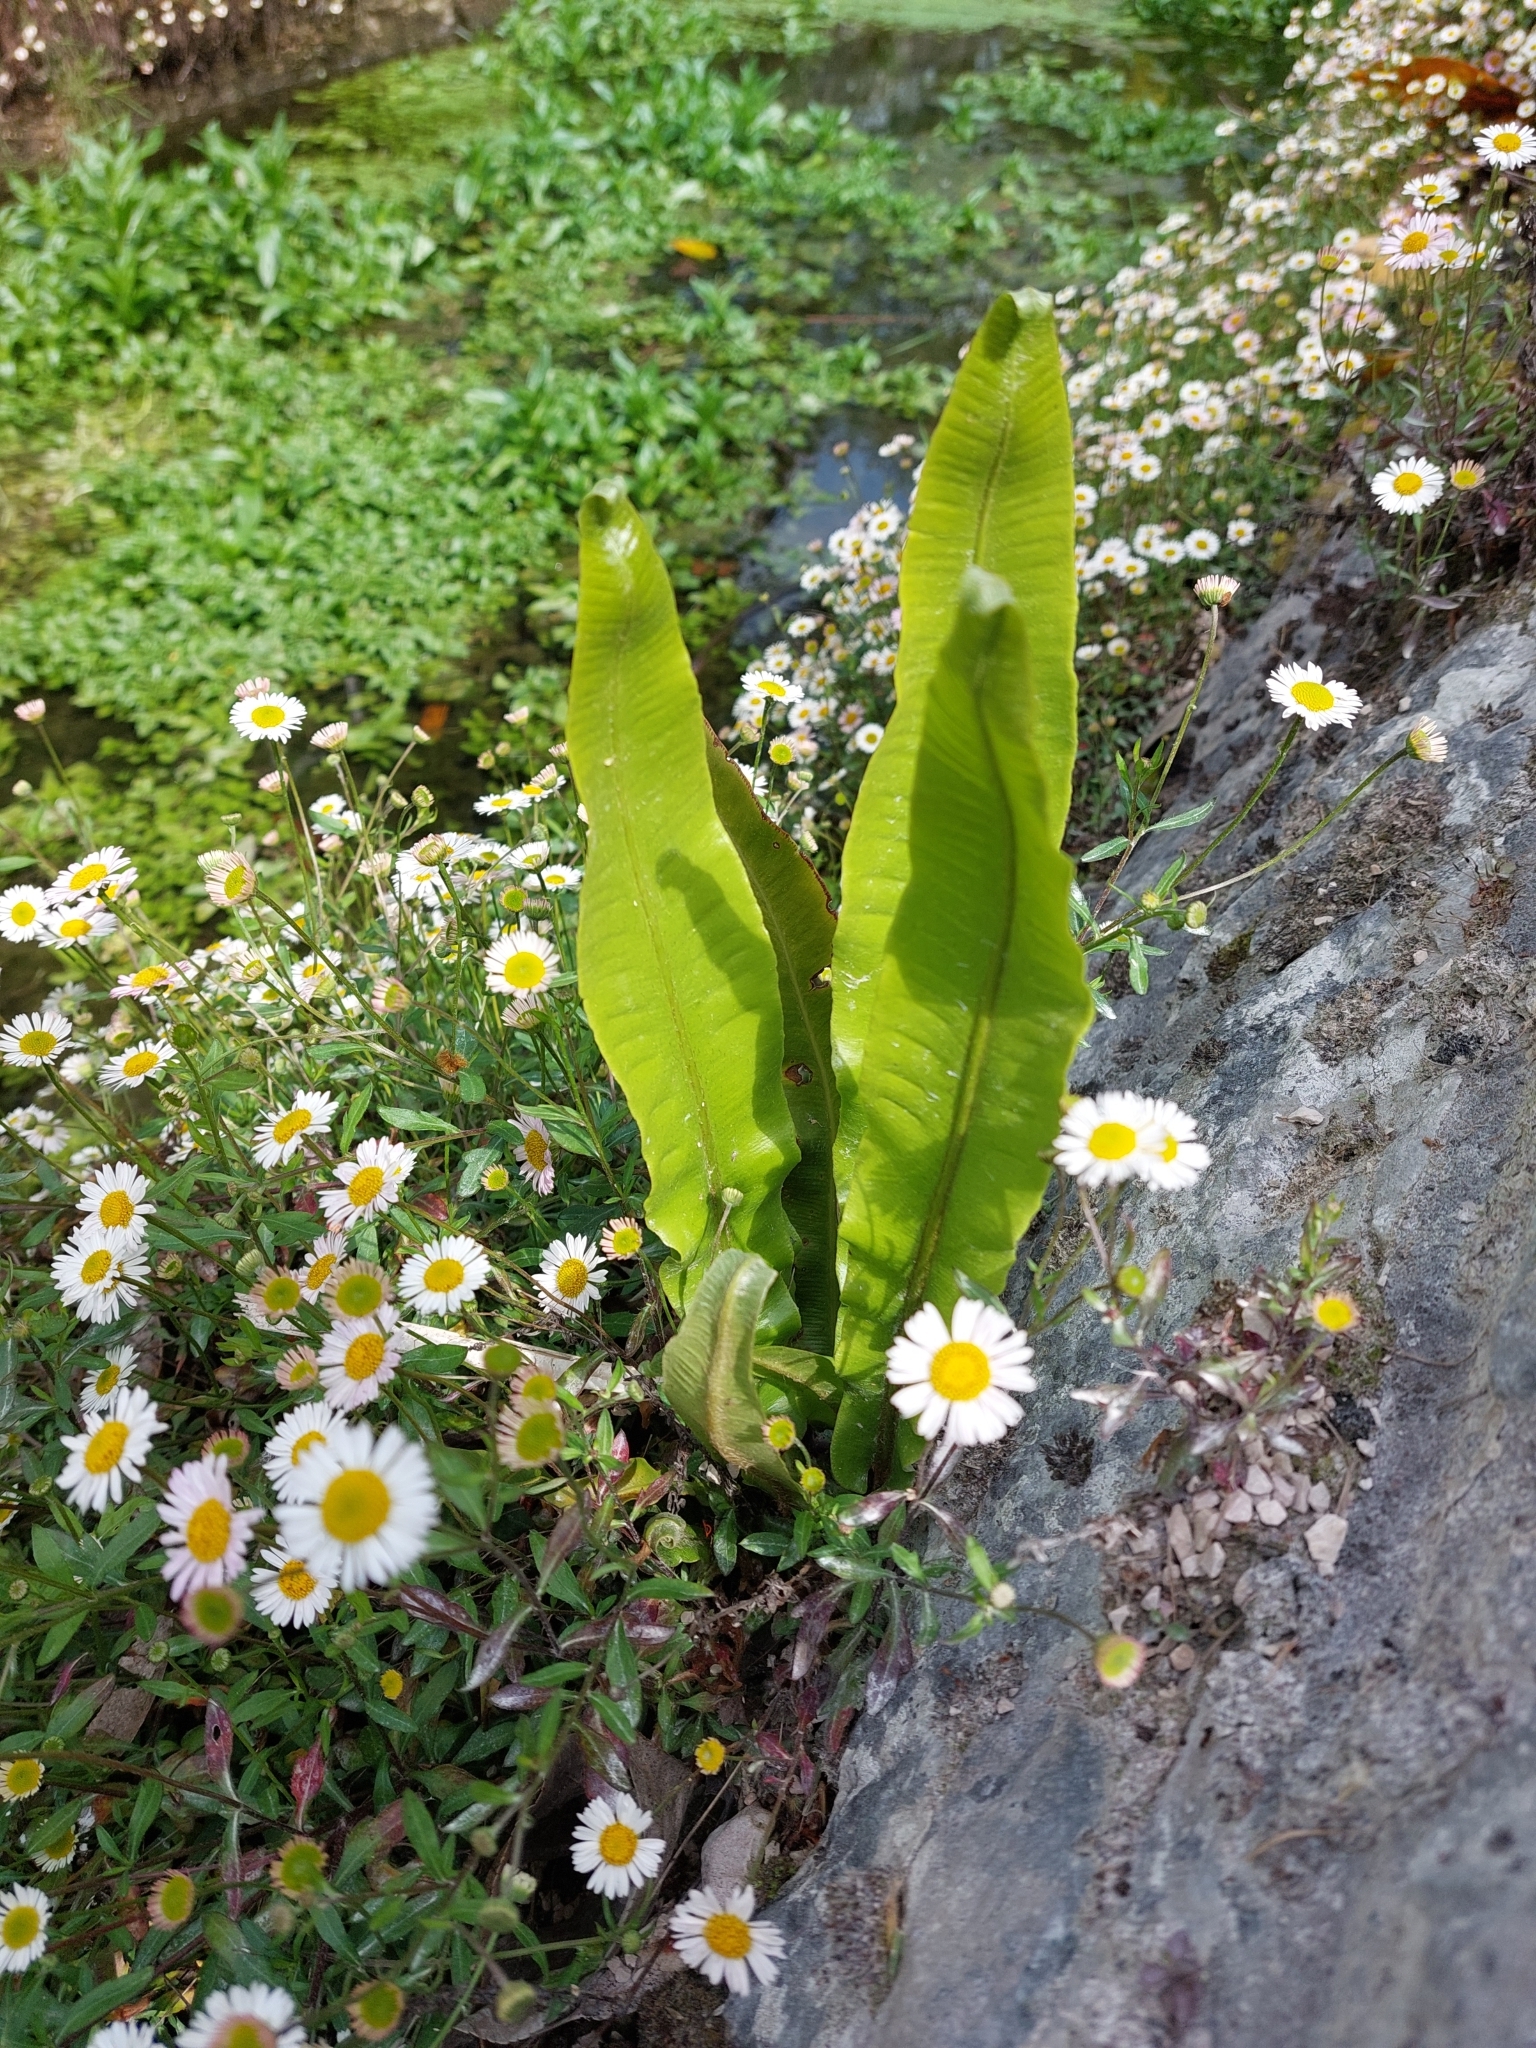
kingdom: Plantae
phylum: Tracheophyta
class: Polypodiopsida
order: Polypodiales
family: Aspleniaceae
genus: Asplenium
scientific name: Asplenium scolopendrium
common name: Hart's-tongue fern
